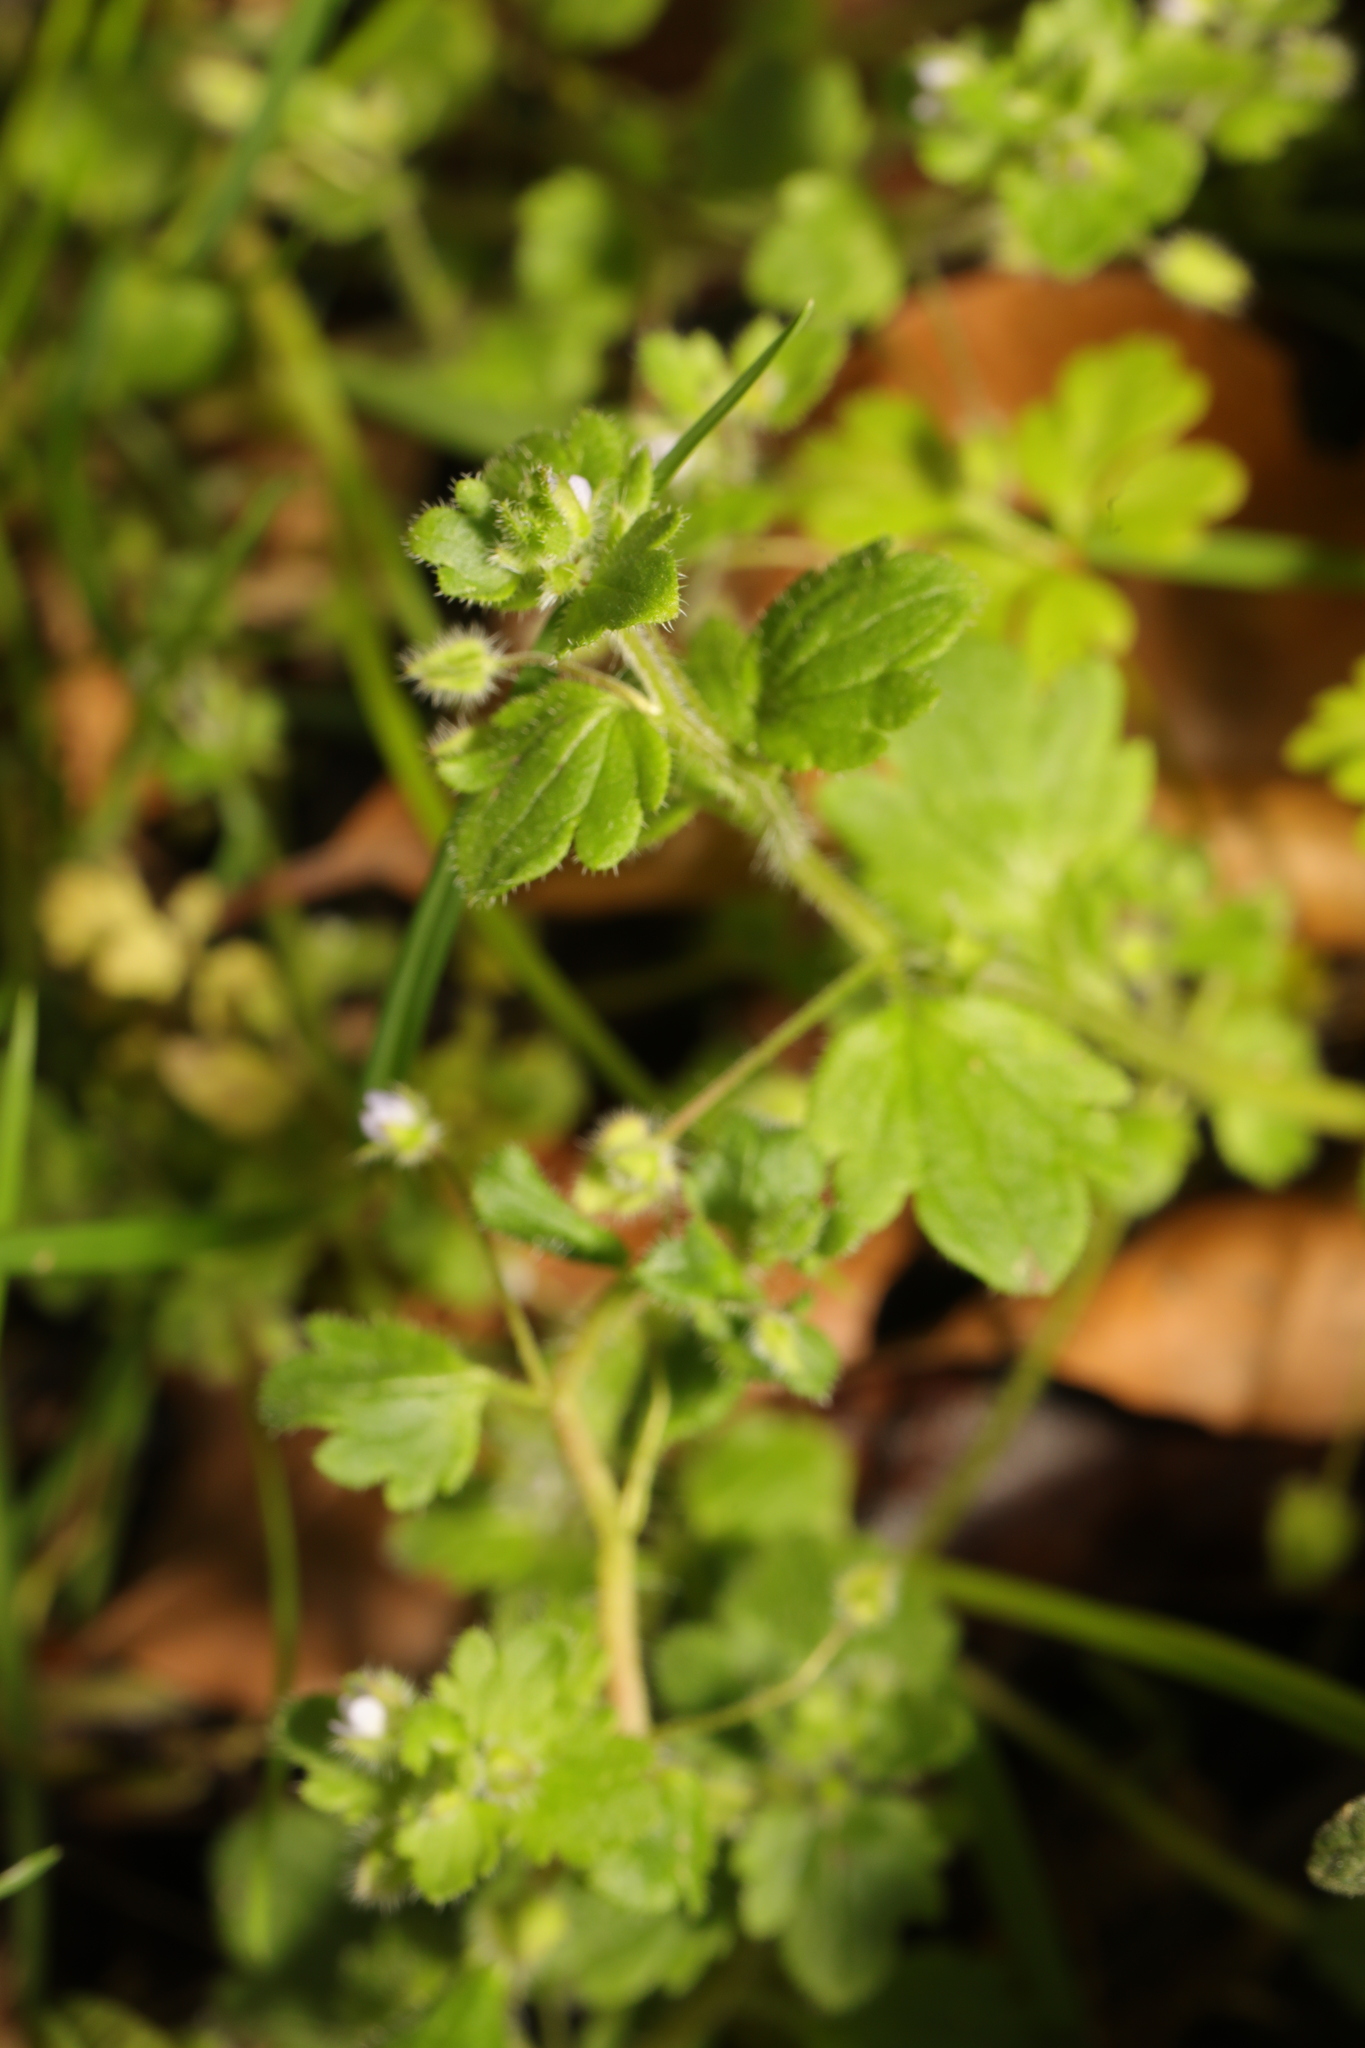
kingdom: Plantae
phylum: Tracheophyta
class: Magnoliopsida
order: Lamiales
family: Plantaginaceae
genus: Veronica
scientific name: Veronica sublobata
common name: False ivy-leaved speedwell
